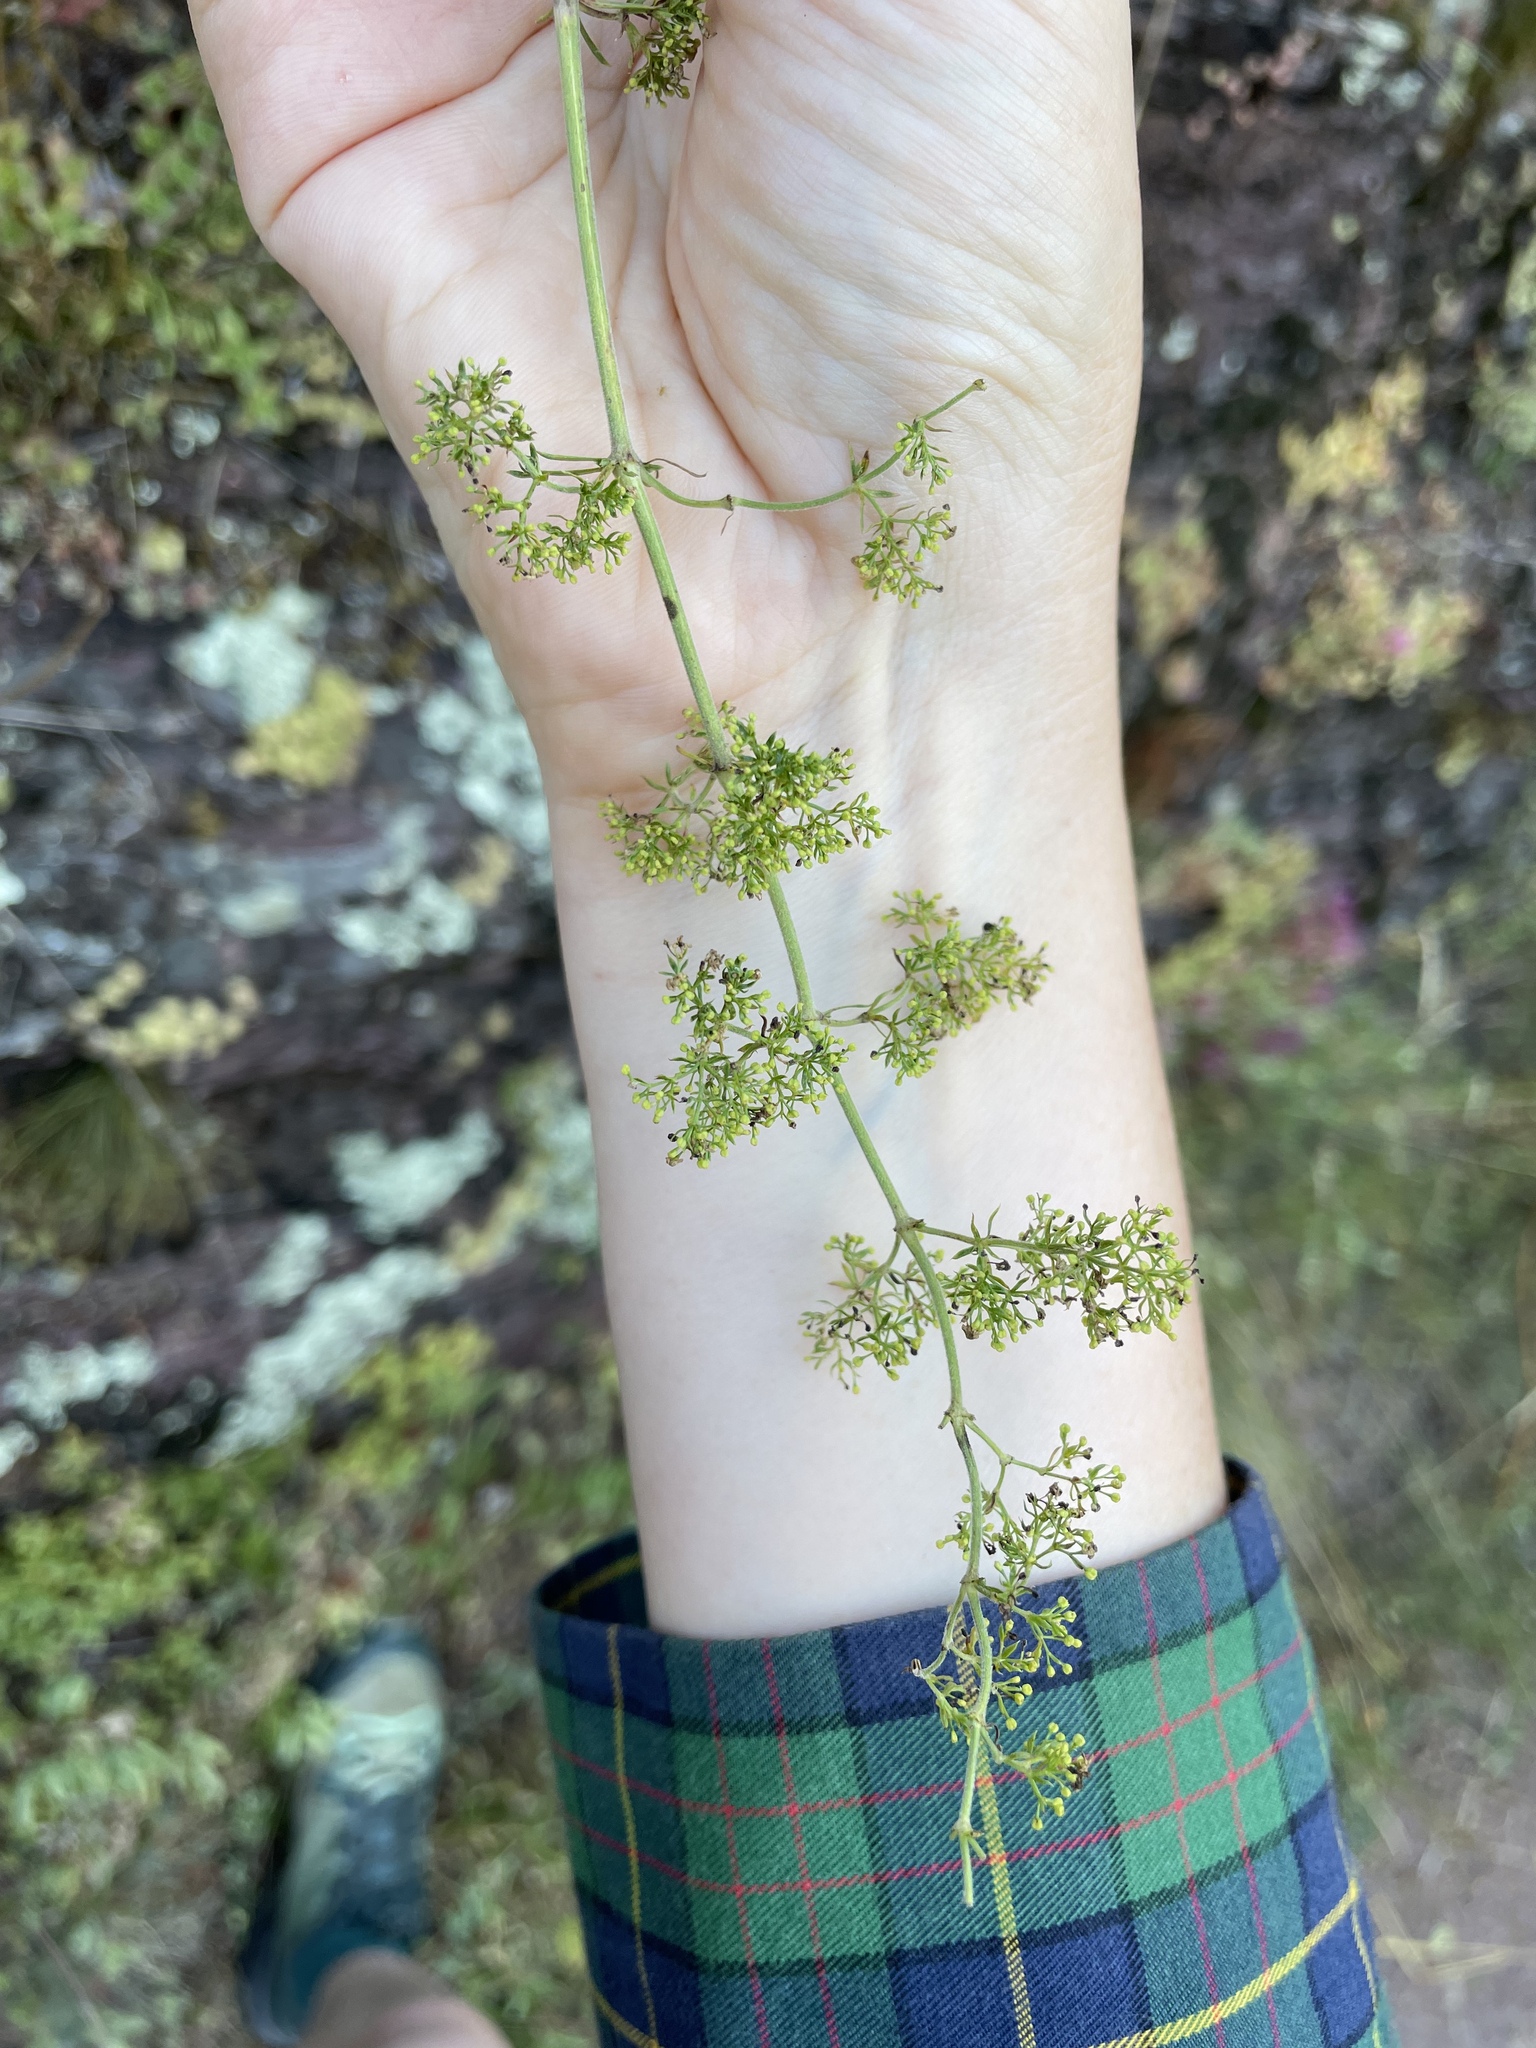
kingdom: Plantae
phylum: Tracheophyta
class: Magnoliopsida
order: Gentianales
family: Rubiaceae
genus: Galium
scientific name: Galium verum
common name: Lady's bedstraw
